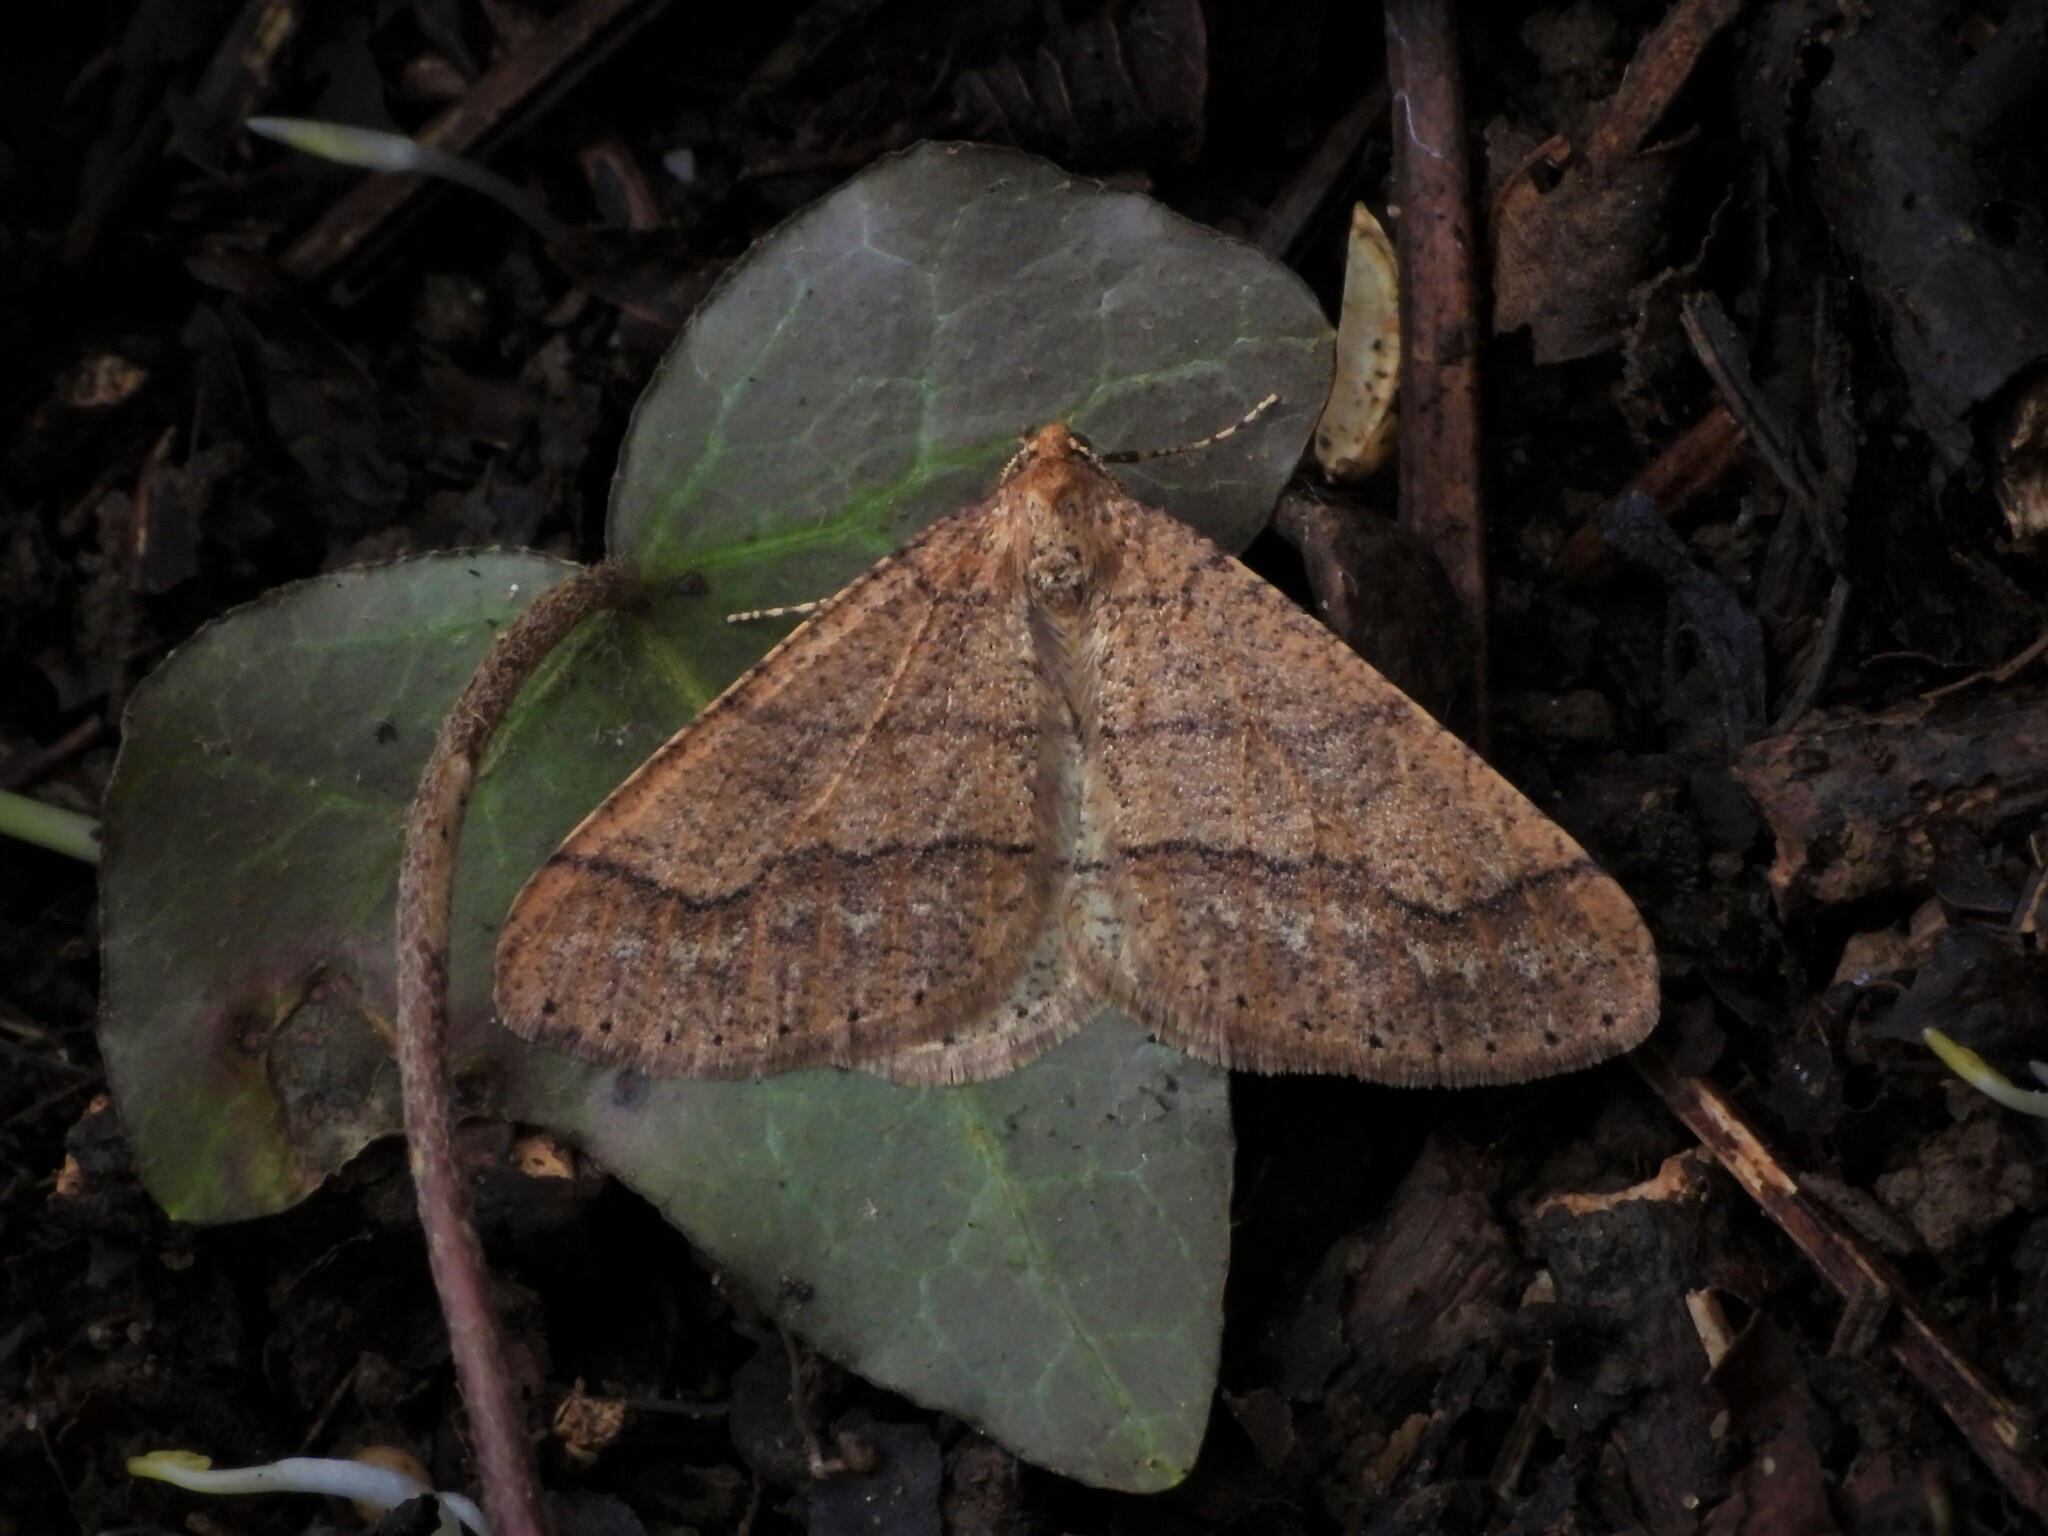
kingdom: Animalia
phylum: Arthropoda
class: Insecta
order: Lepidoptera
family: Geometridae
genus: Agriopis
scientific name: Agriopis marginaria
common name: Dotted border
